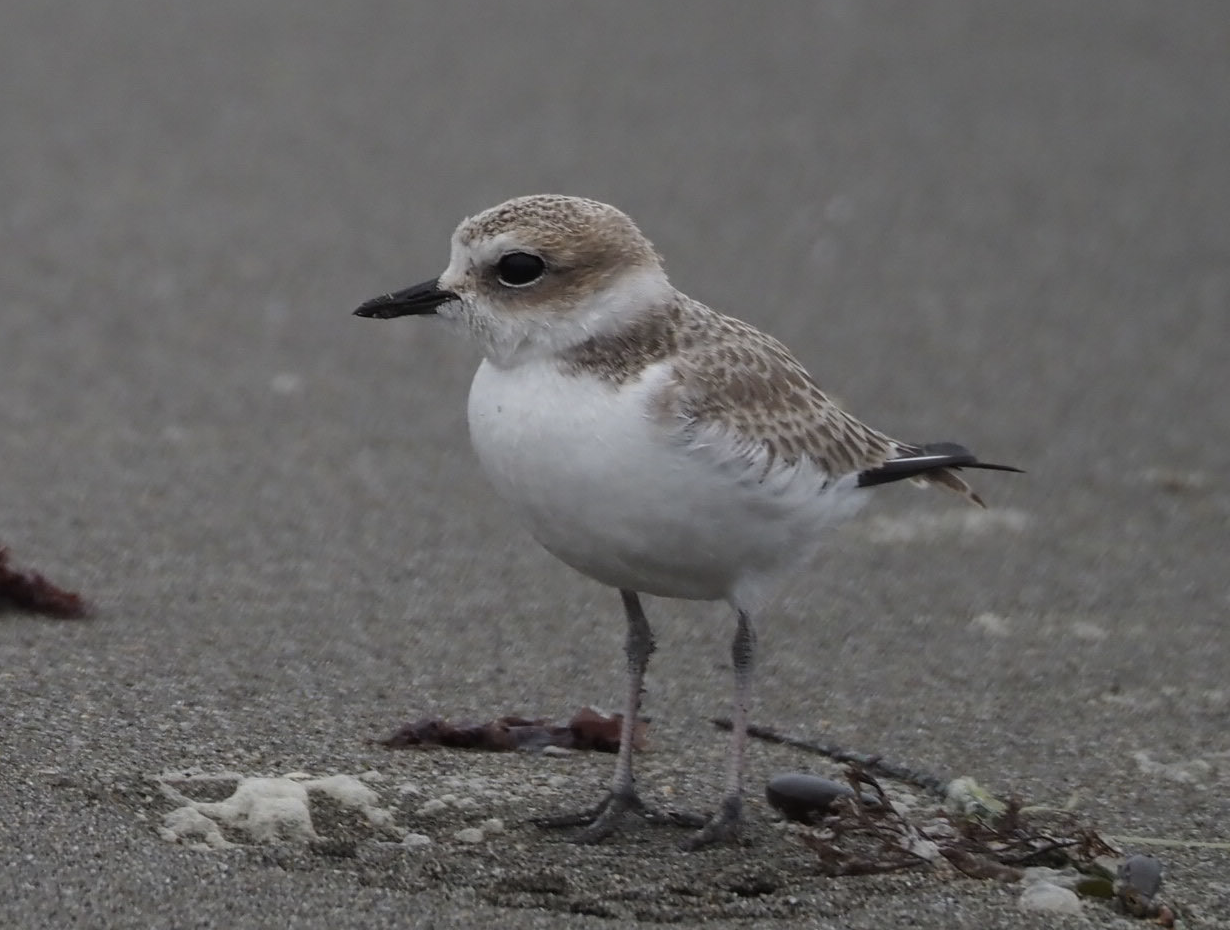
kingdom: Animalia
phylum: Chordata
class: Aves
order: Charadriiformes
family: Charadriidae
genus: Anarhynchus
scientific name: Anarhynchus
